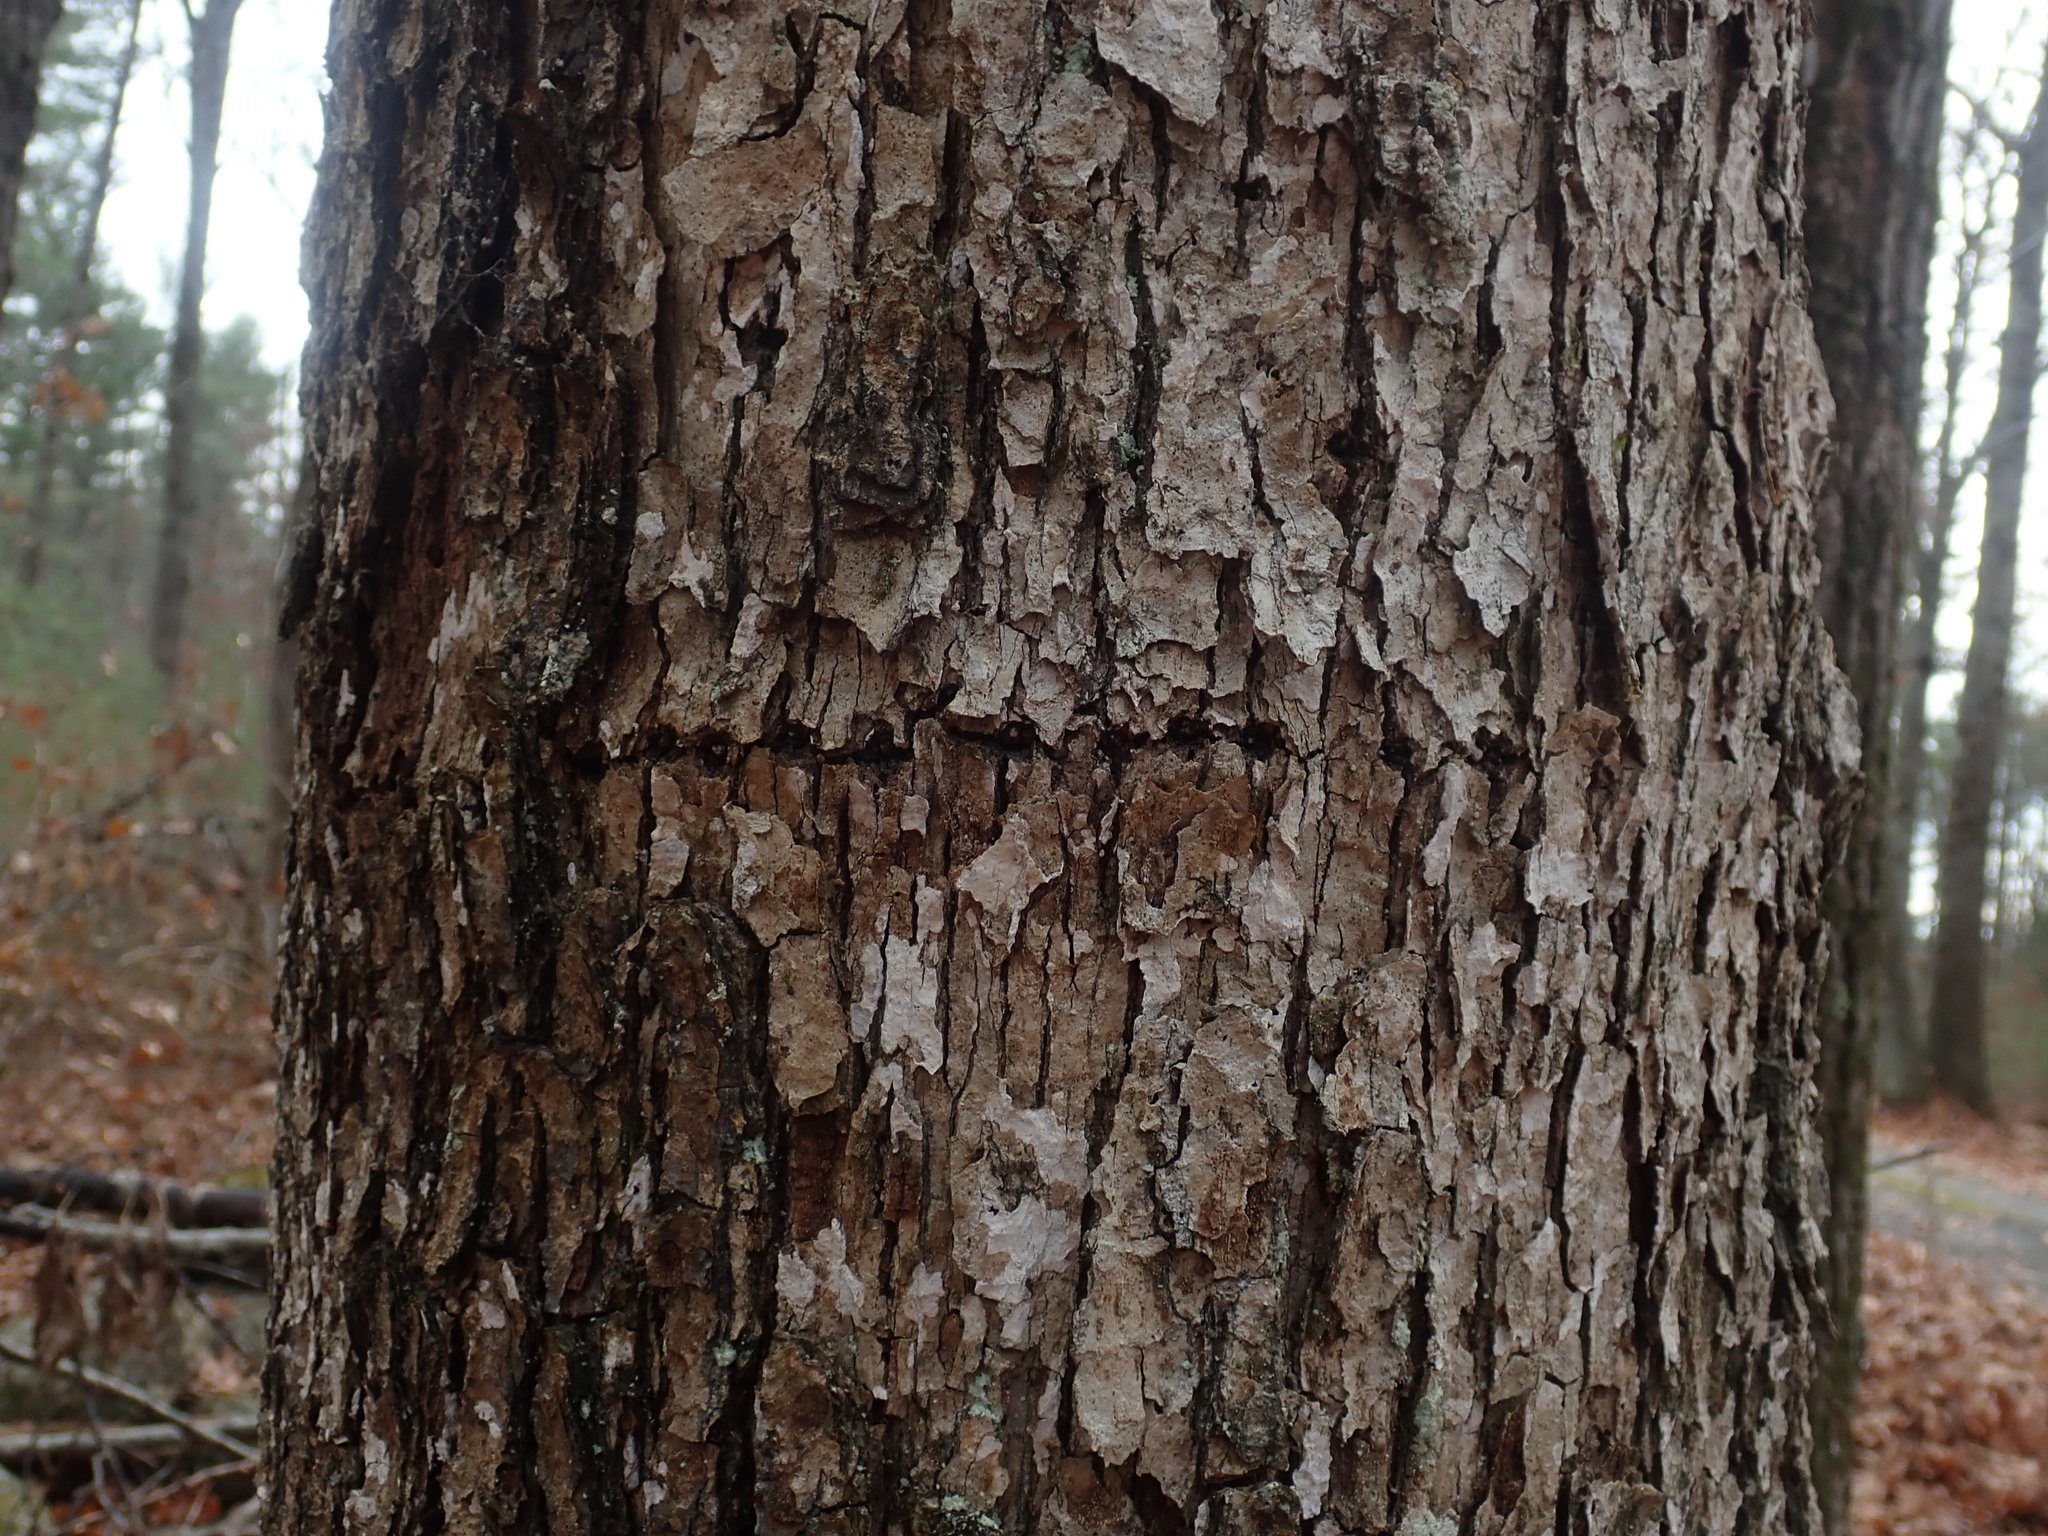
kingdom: Animalia
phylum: Chordata
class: Aves
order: Piciformes
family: Picidae
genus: Sphyrapicus
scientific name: Sphyrapicus varius
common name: Yellow-bellied sapsucker
